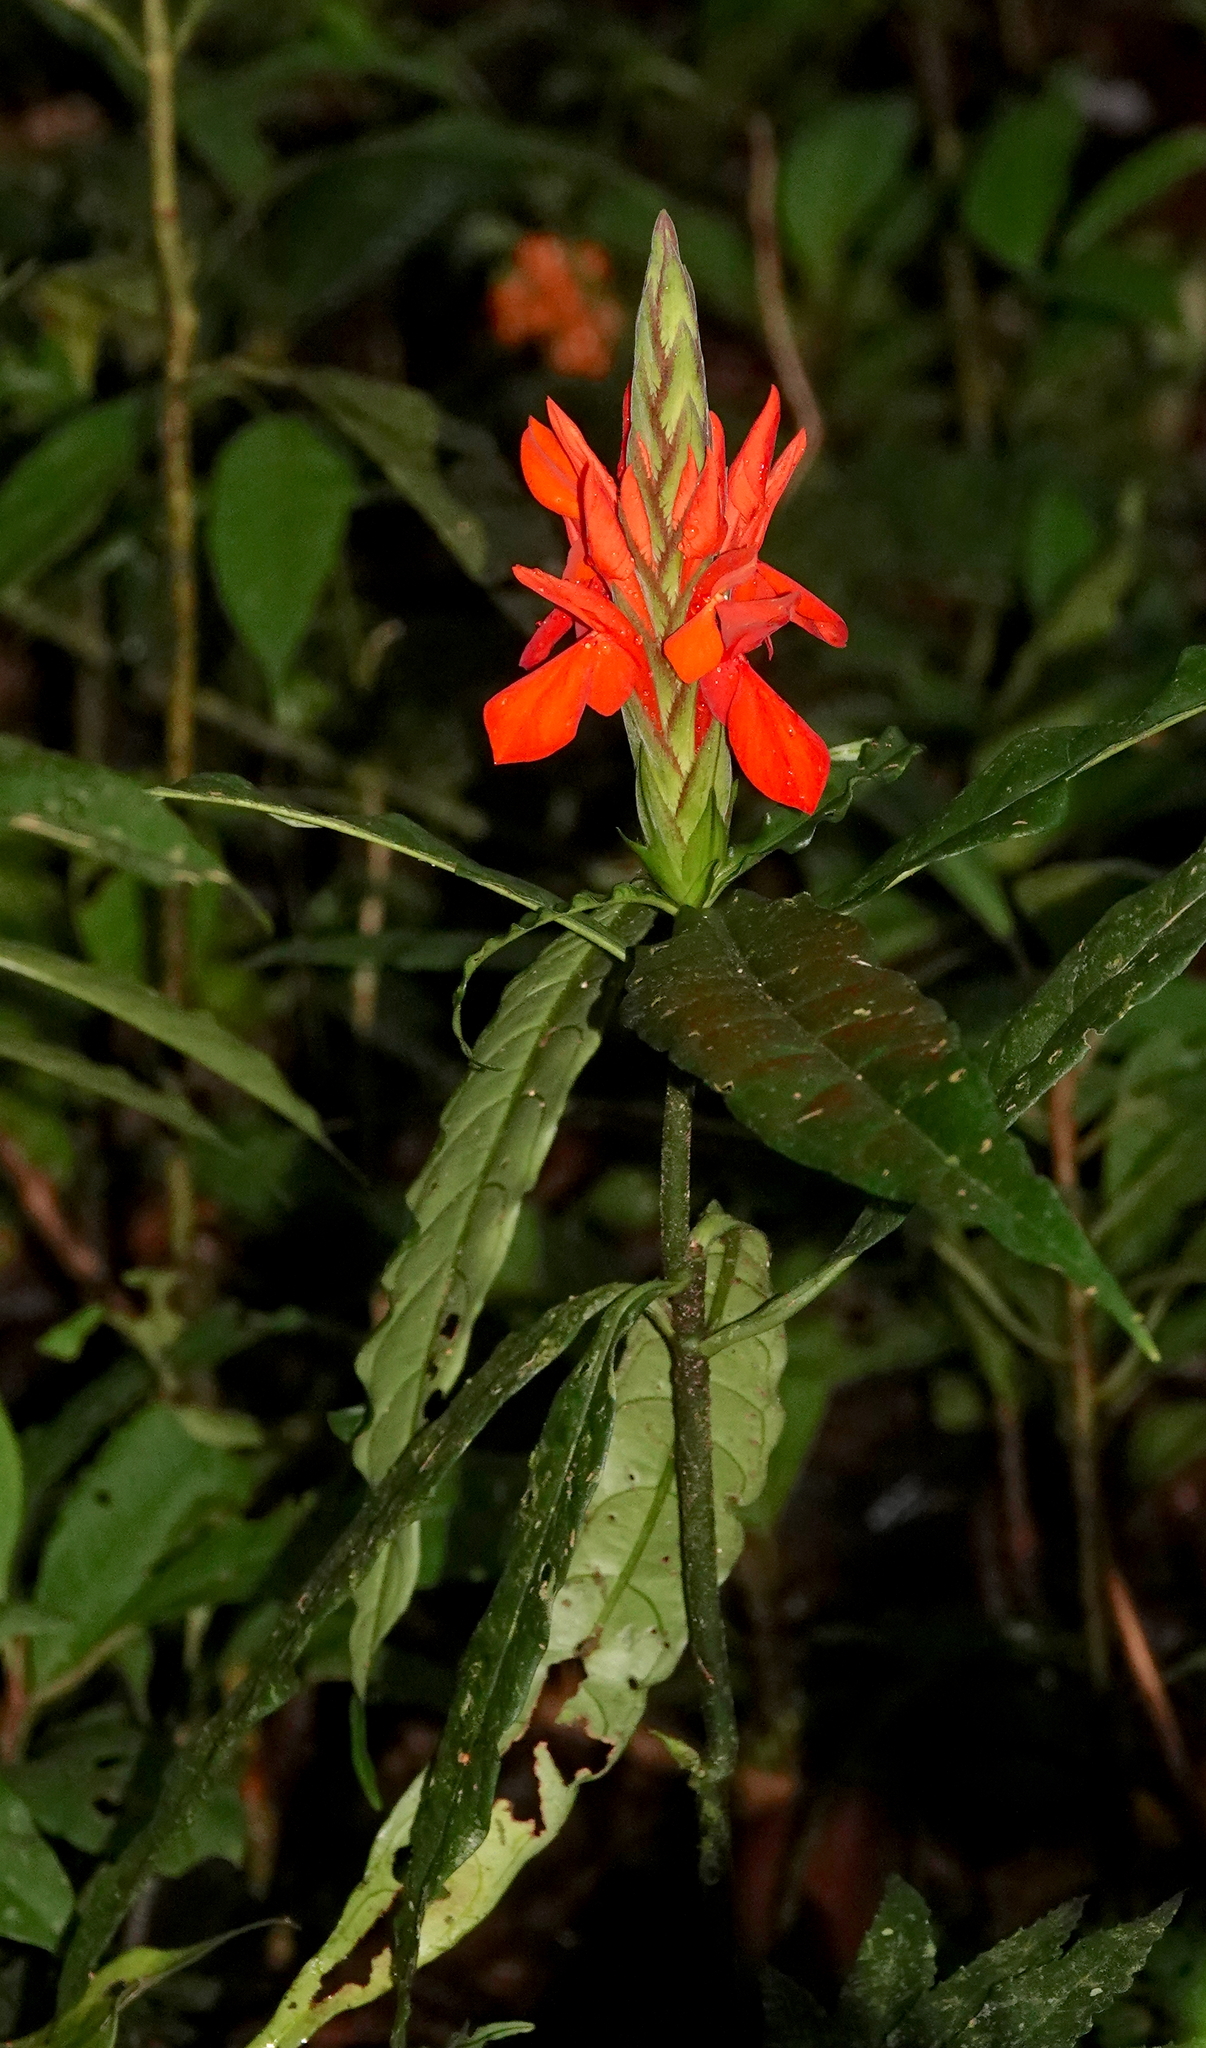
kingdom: Plantae
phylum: Tracheophyta
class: Magnoliopsida
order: Lamiales
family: Acanthaceae
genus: Aphelandra
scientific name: Aphelandra aurantiaca
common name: Fiery spike
